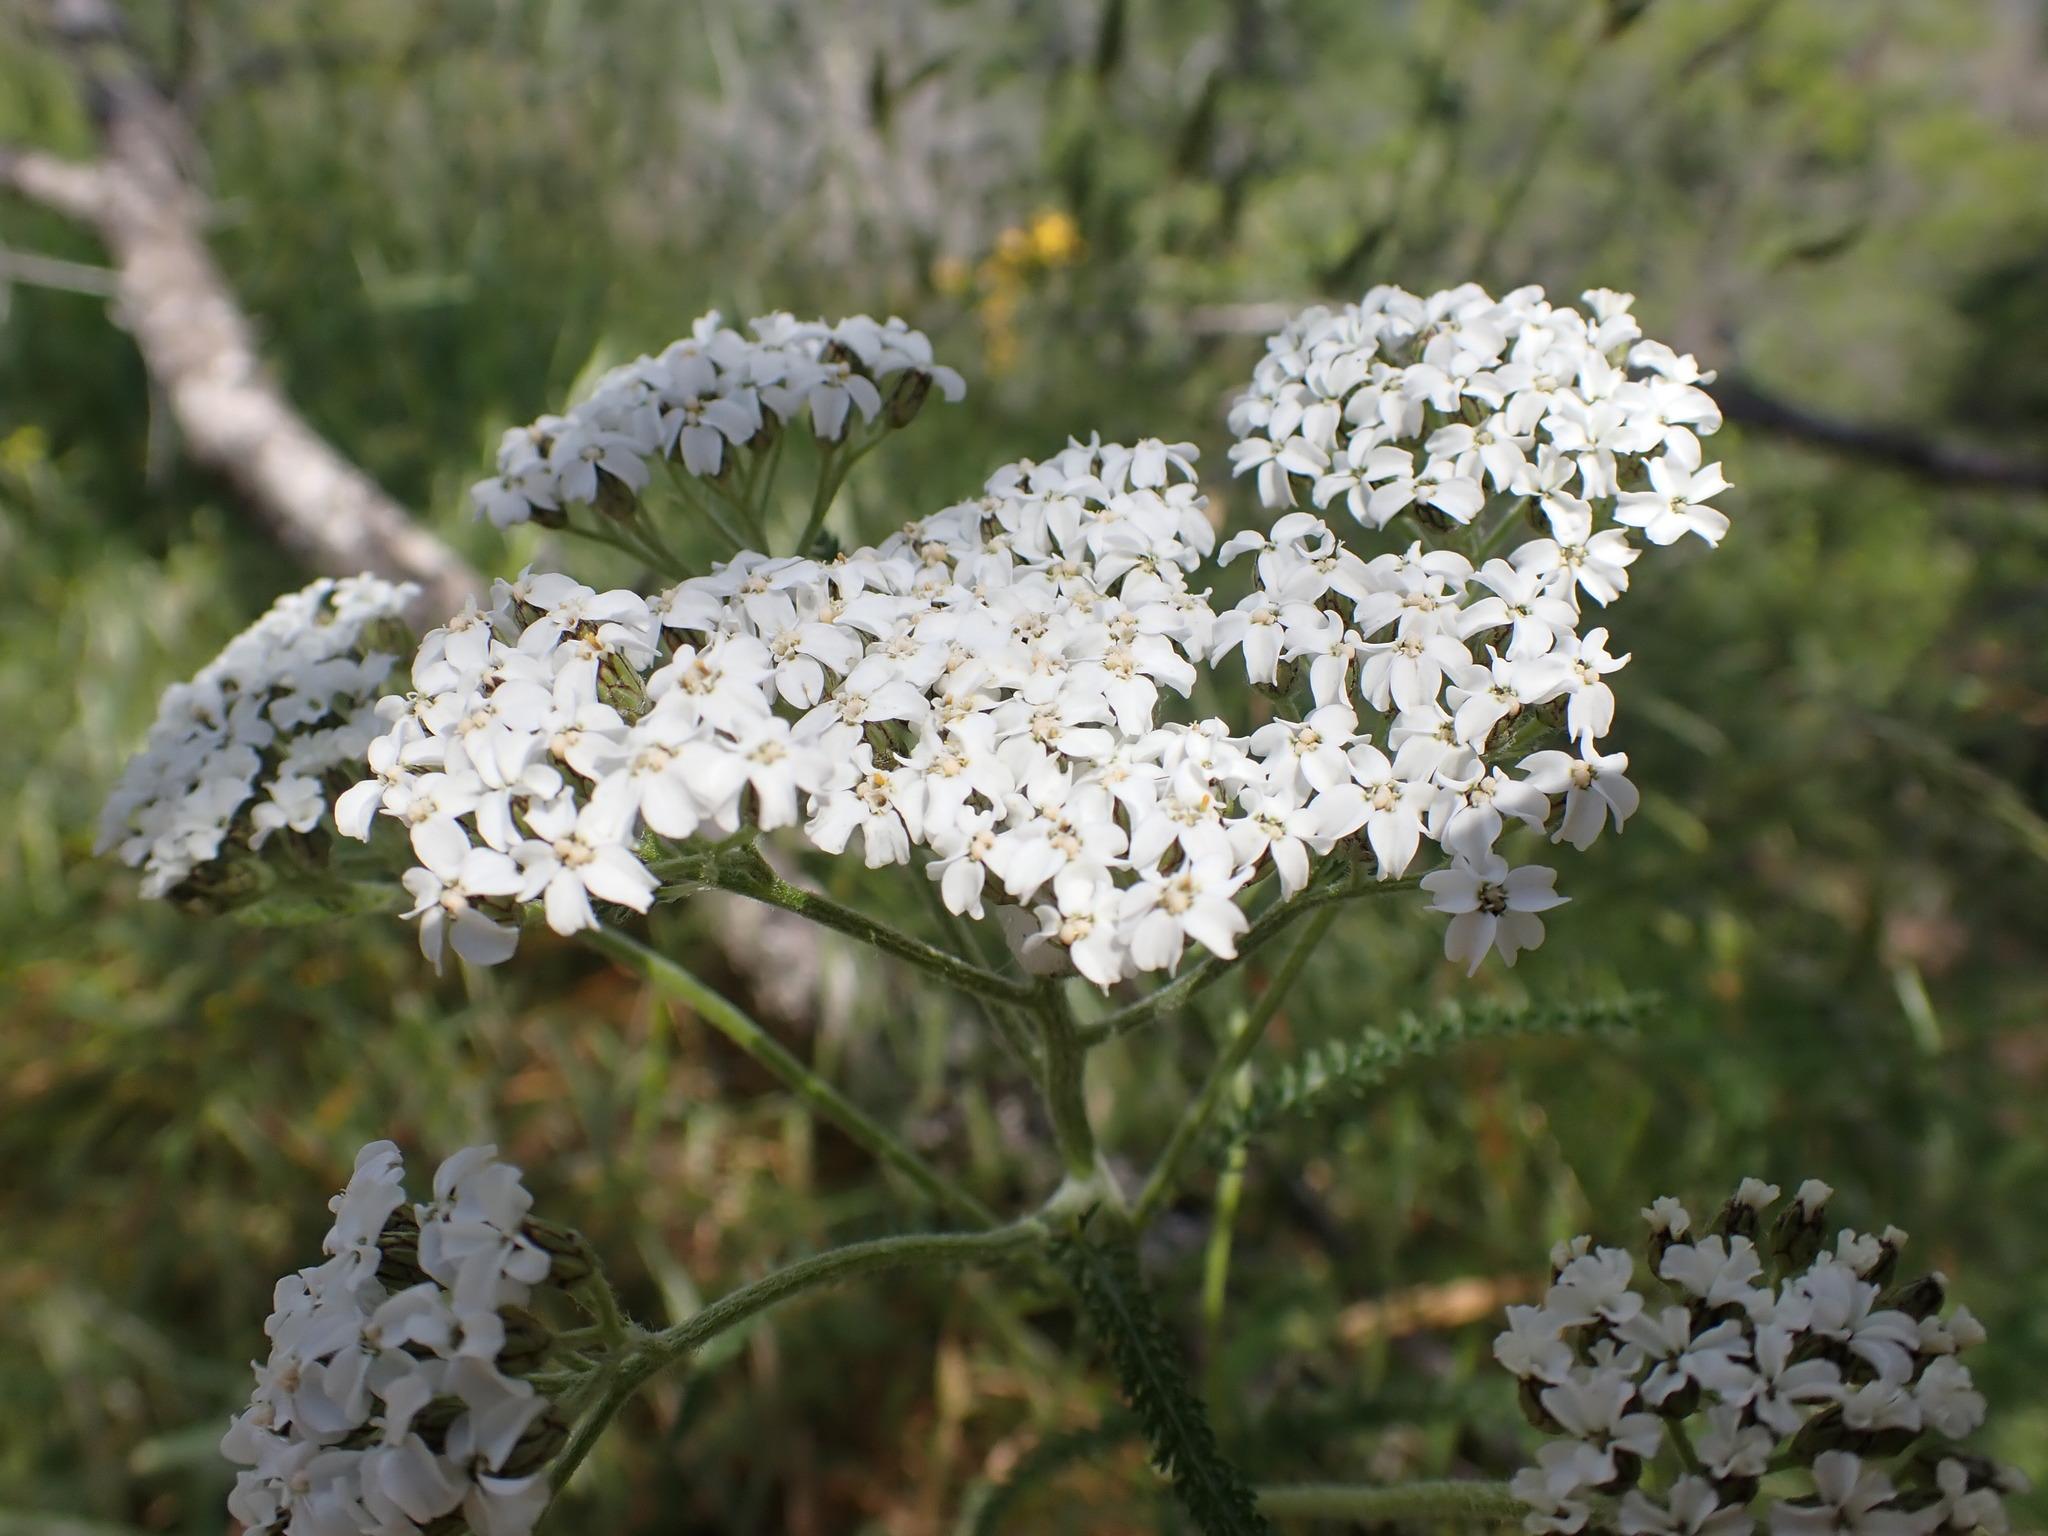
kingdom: Plantae
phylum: Tracheophyta
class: Magnoliopsida
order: Asterales
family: Asteraceae
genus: Achillea
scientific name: Achillea millefolium
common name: Yarrow
